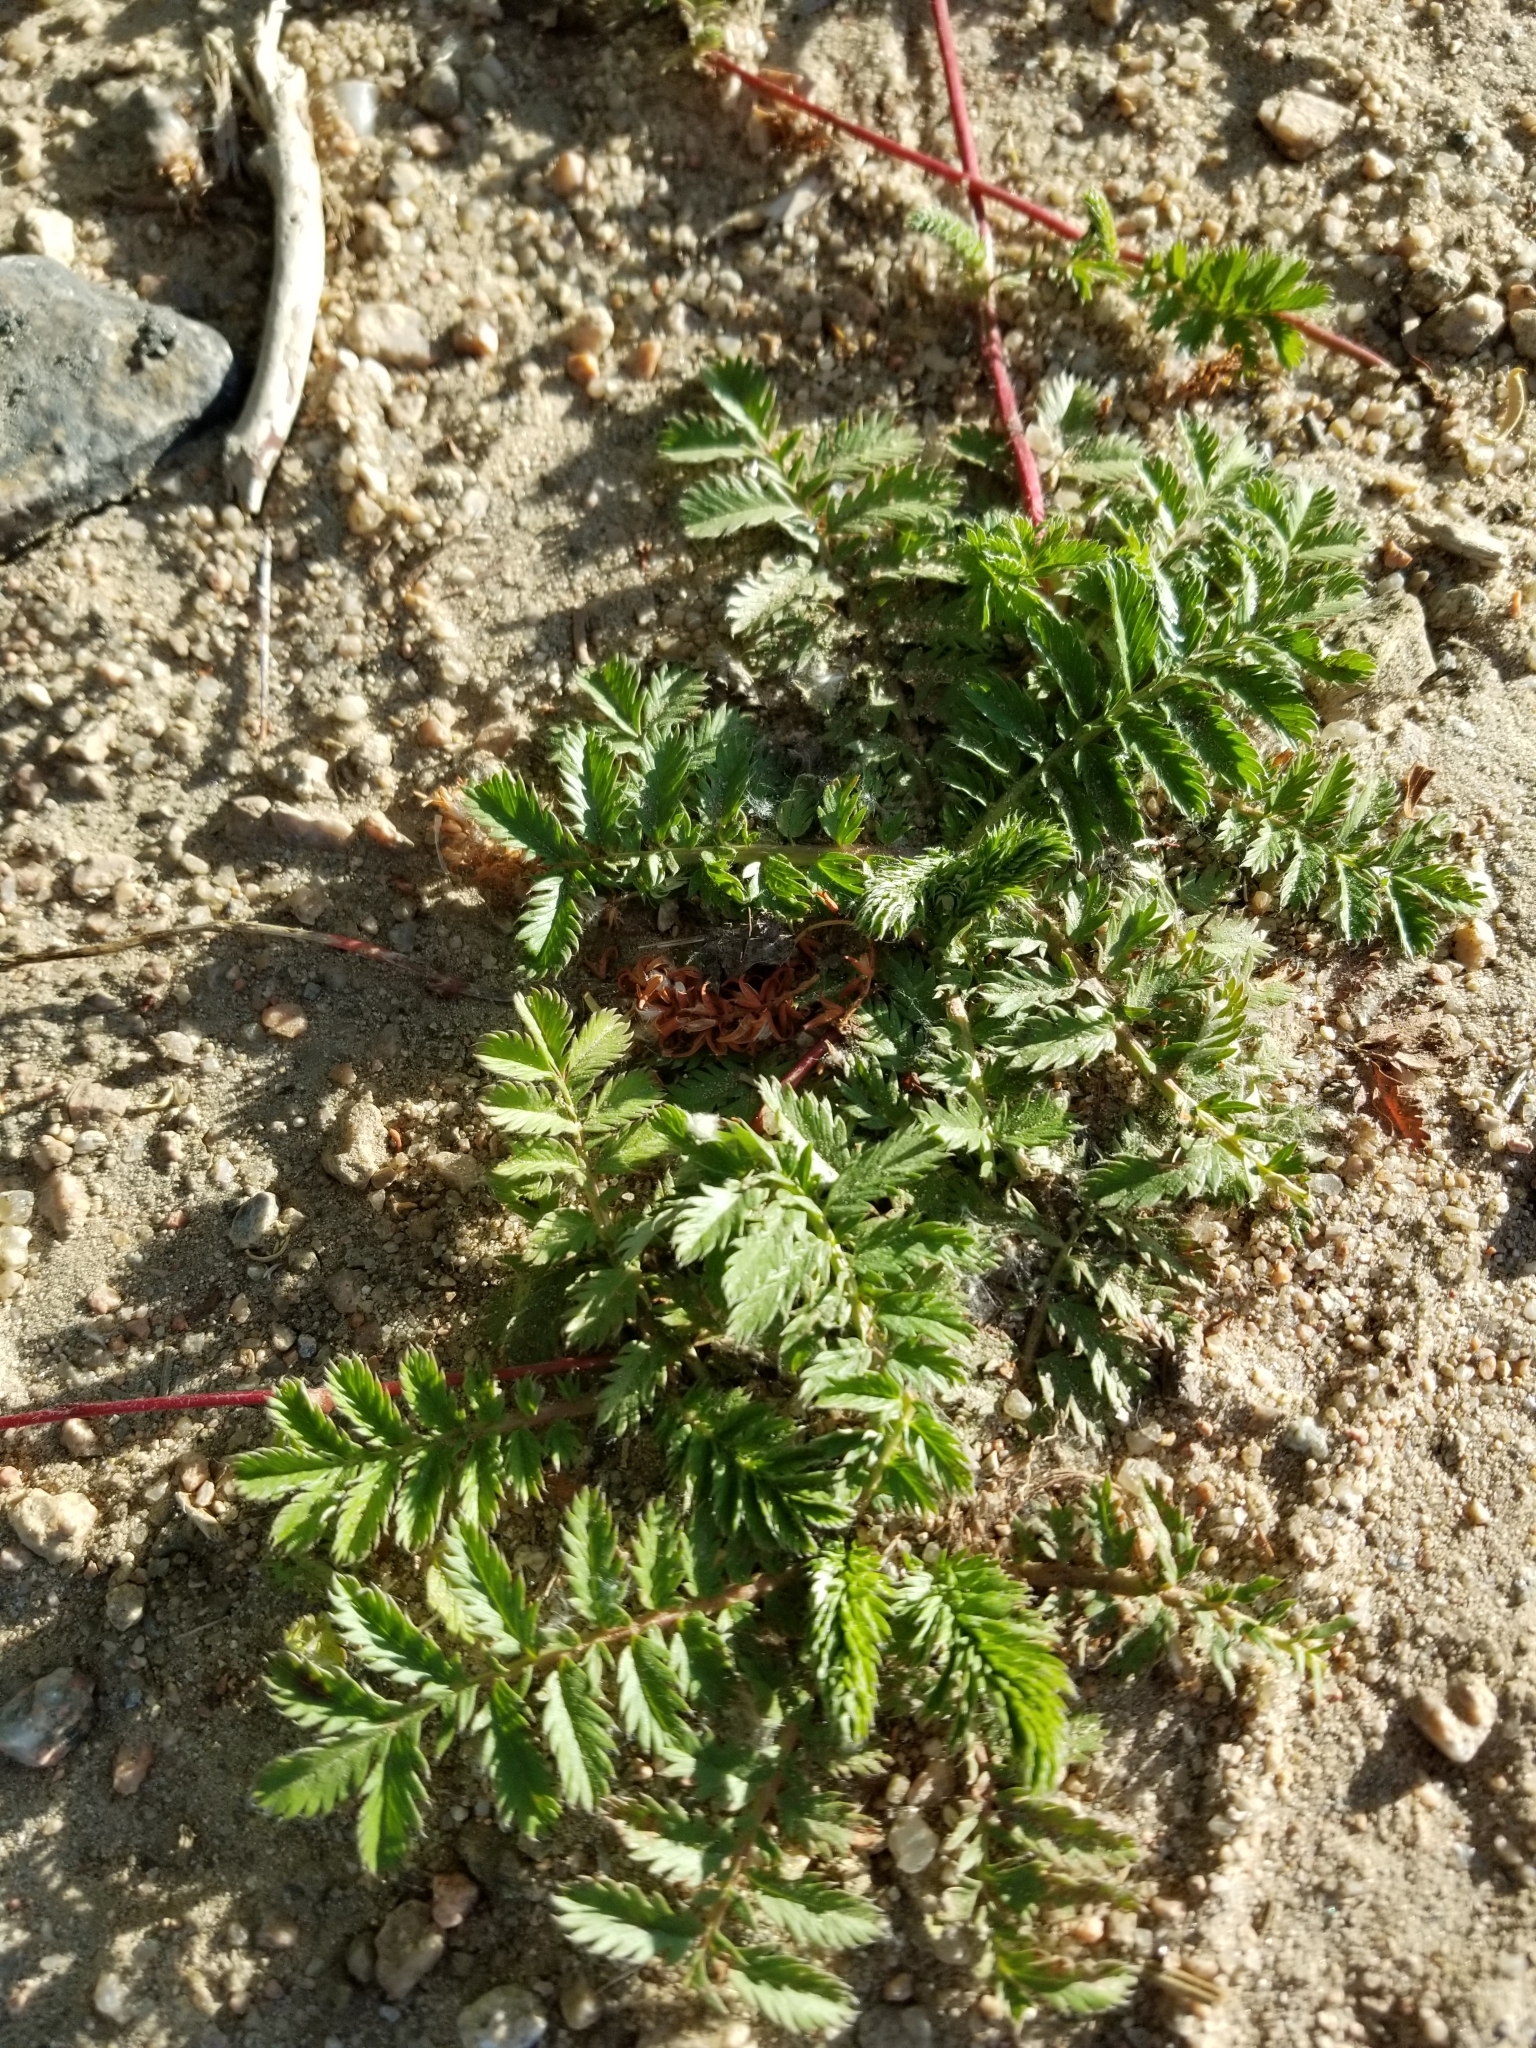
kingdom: Plantae
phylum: Tracheophyta
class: Magnoliopsida
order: Rosales
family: Rosaceae
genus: Argentina
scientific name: Argentina anserina
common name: Common silverweed
